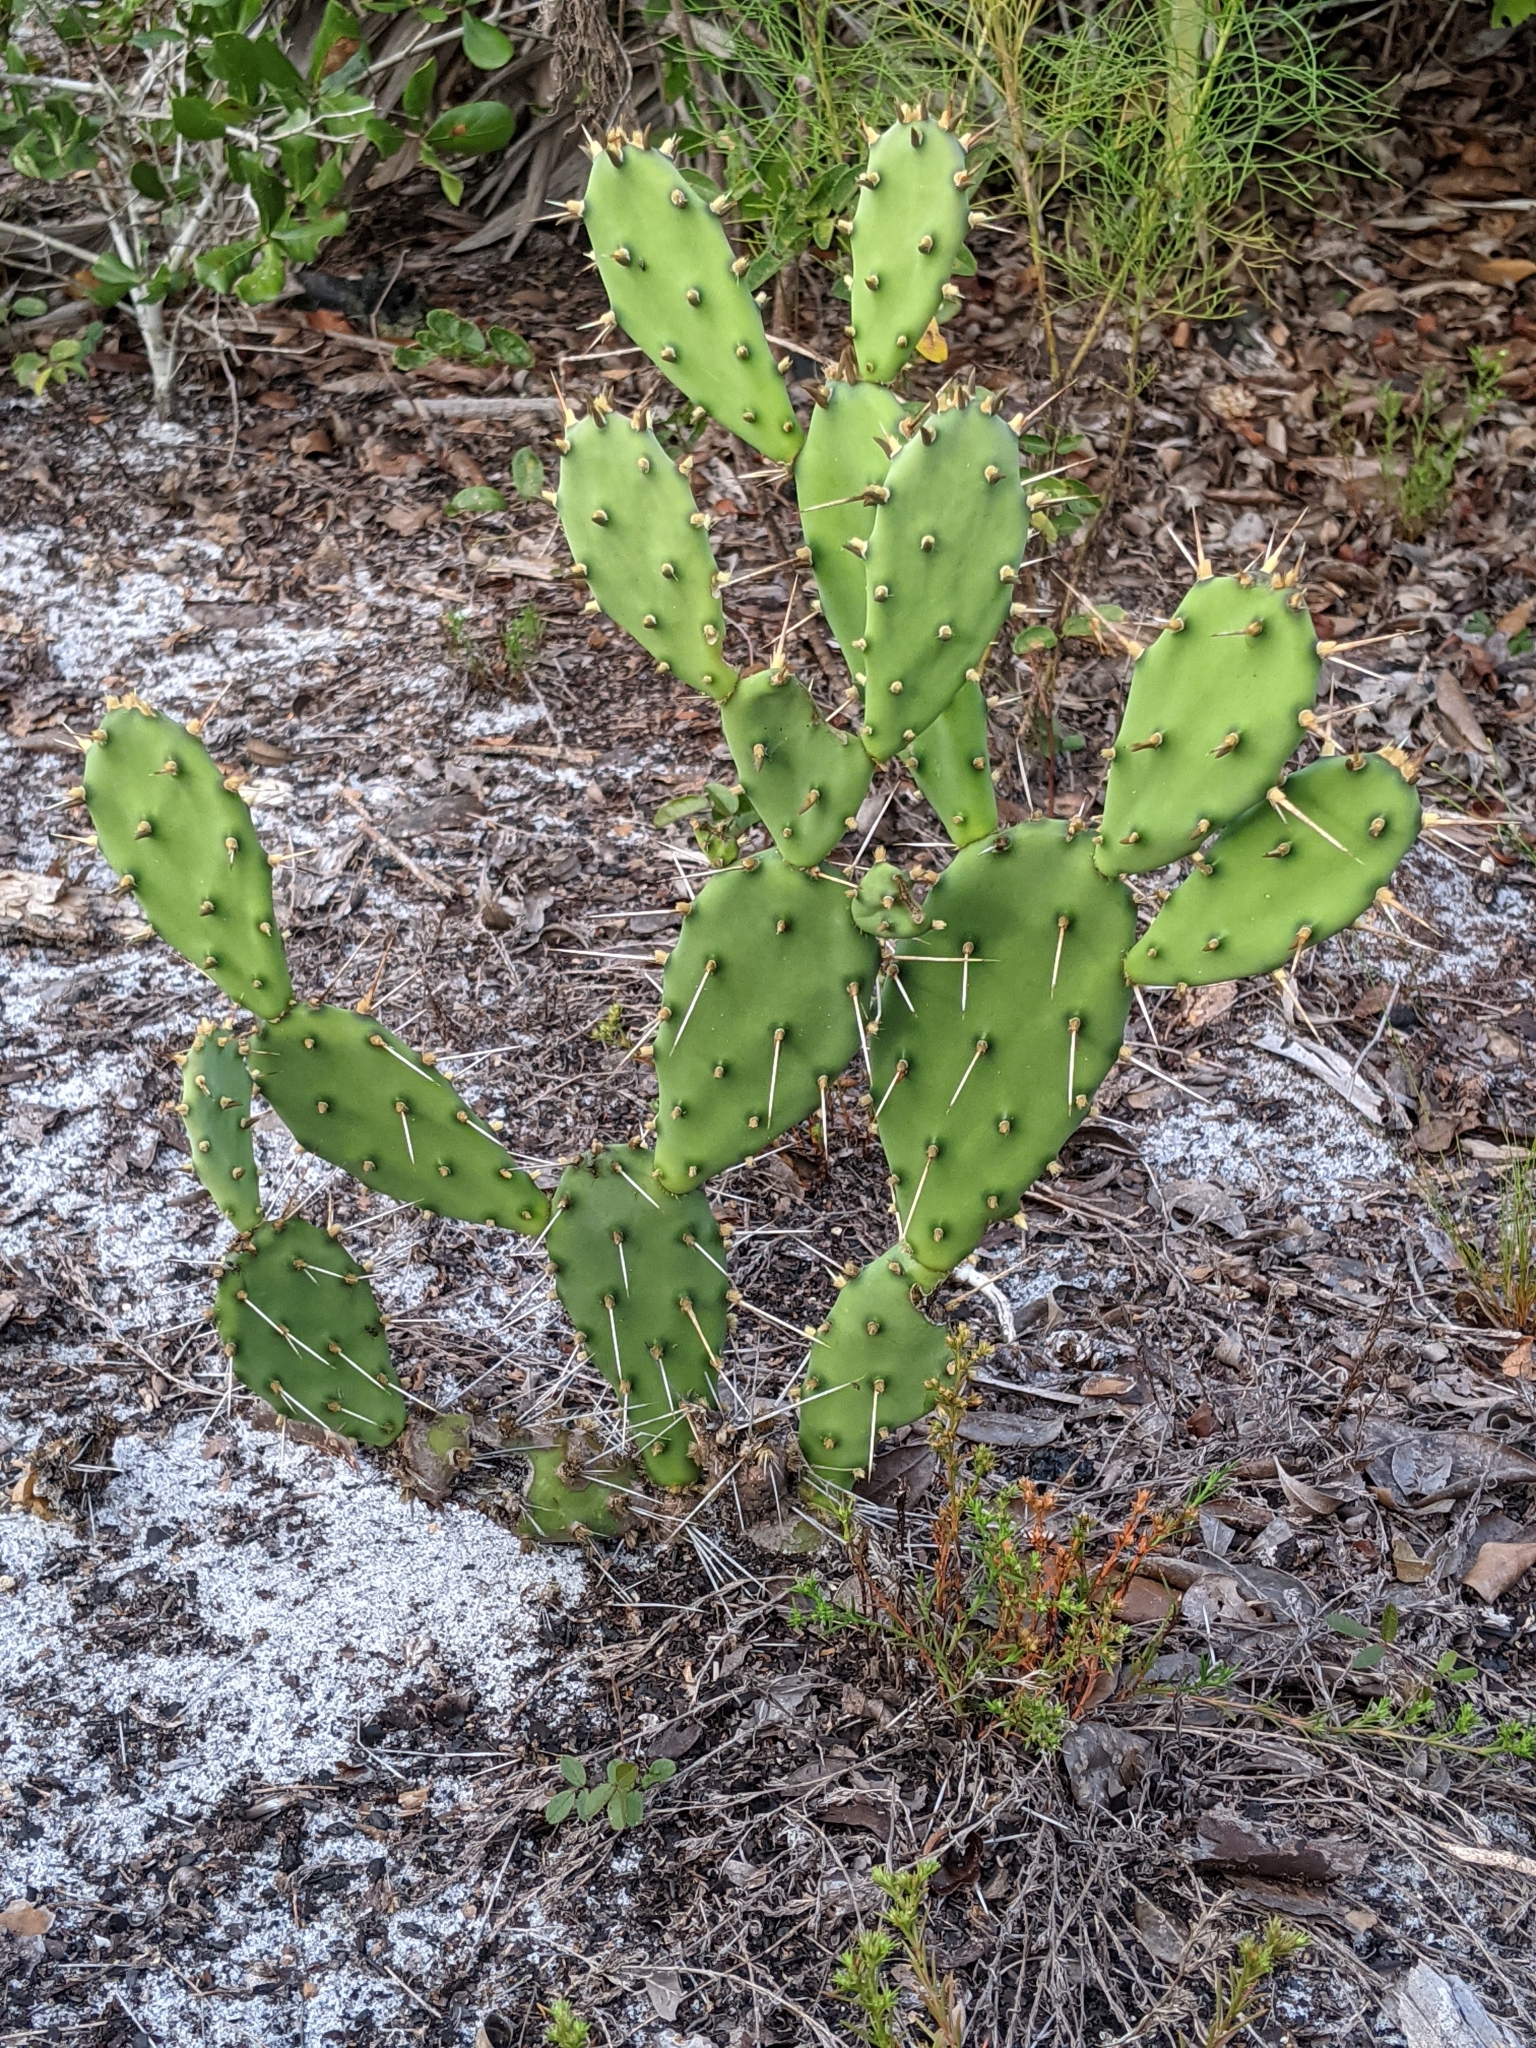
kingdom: Plantae
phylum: Tracheophyta
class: Magnoliopsida
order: Caryophyllales
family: Cactaceae
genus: Opuntia
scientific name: Opuntia austrina
